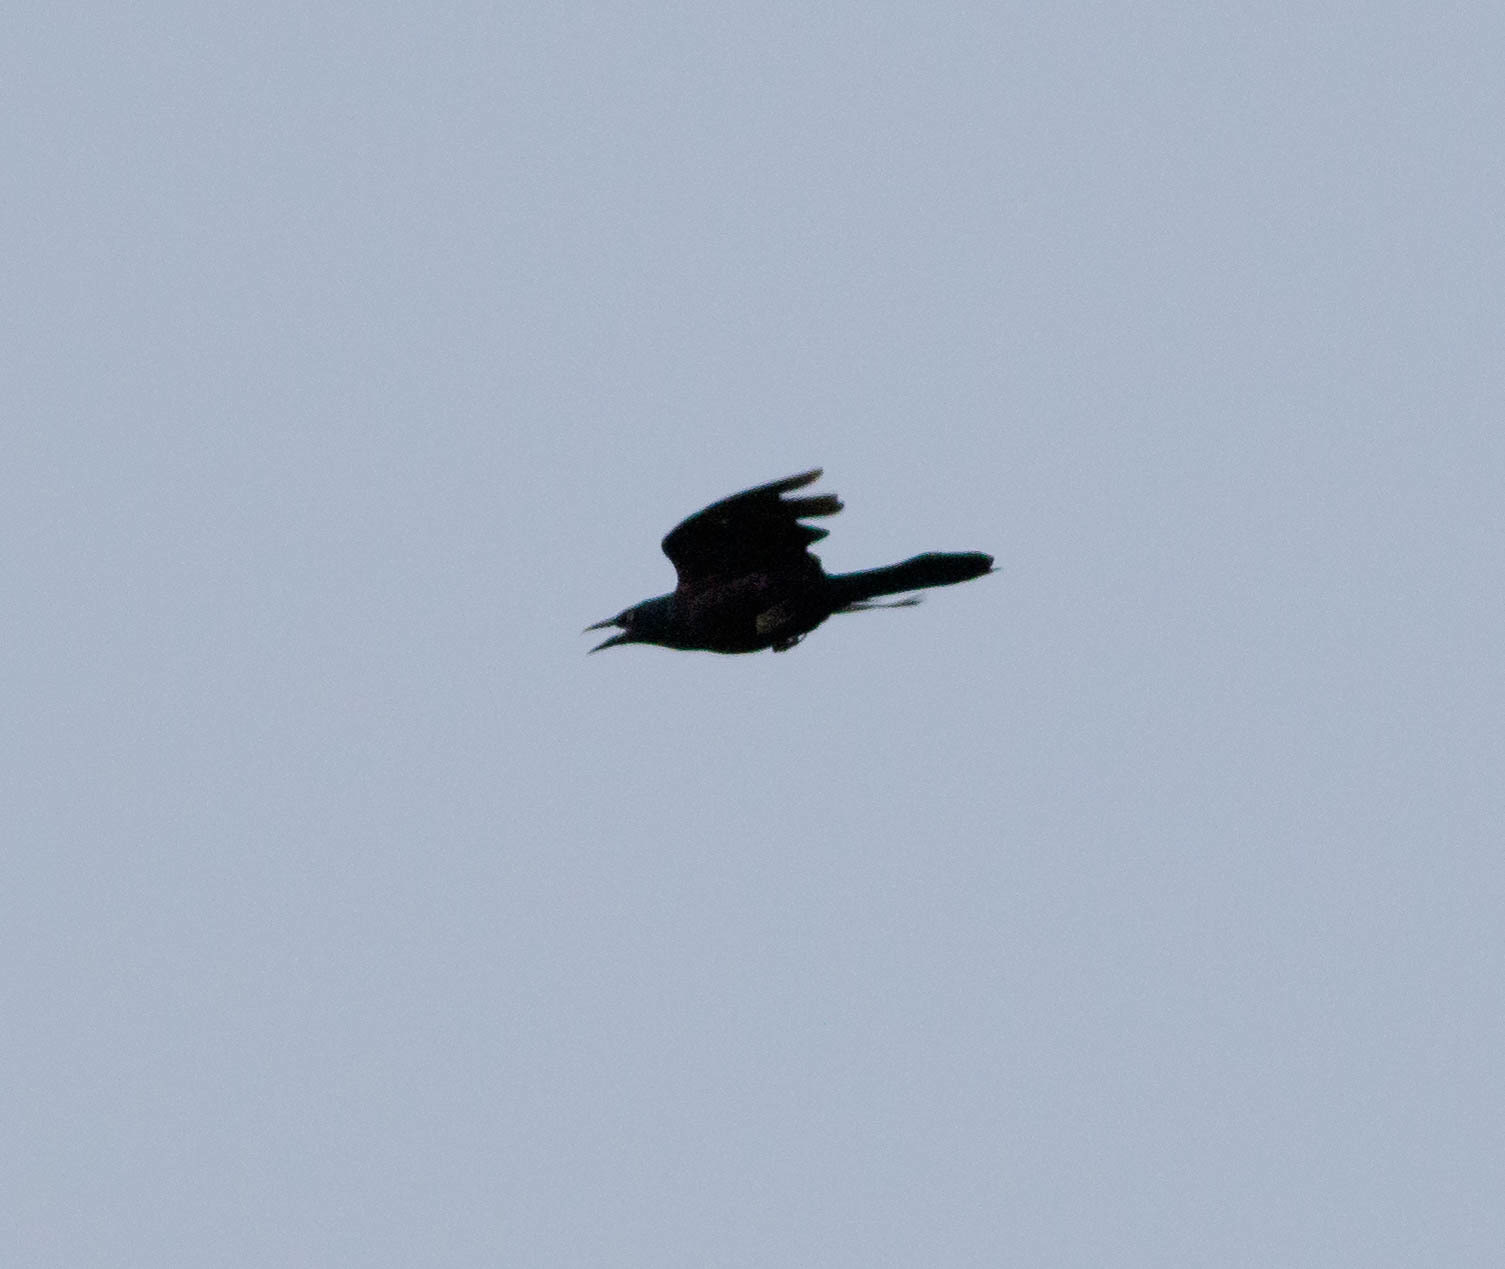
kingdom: Animalia
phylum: Chordata
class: Aves
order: Passeriformes
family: Icteridae
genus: Quiscalus
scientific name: Quiscalus quiscula
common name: Common grackle
